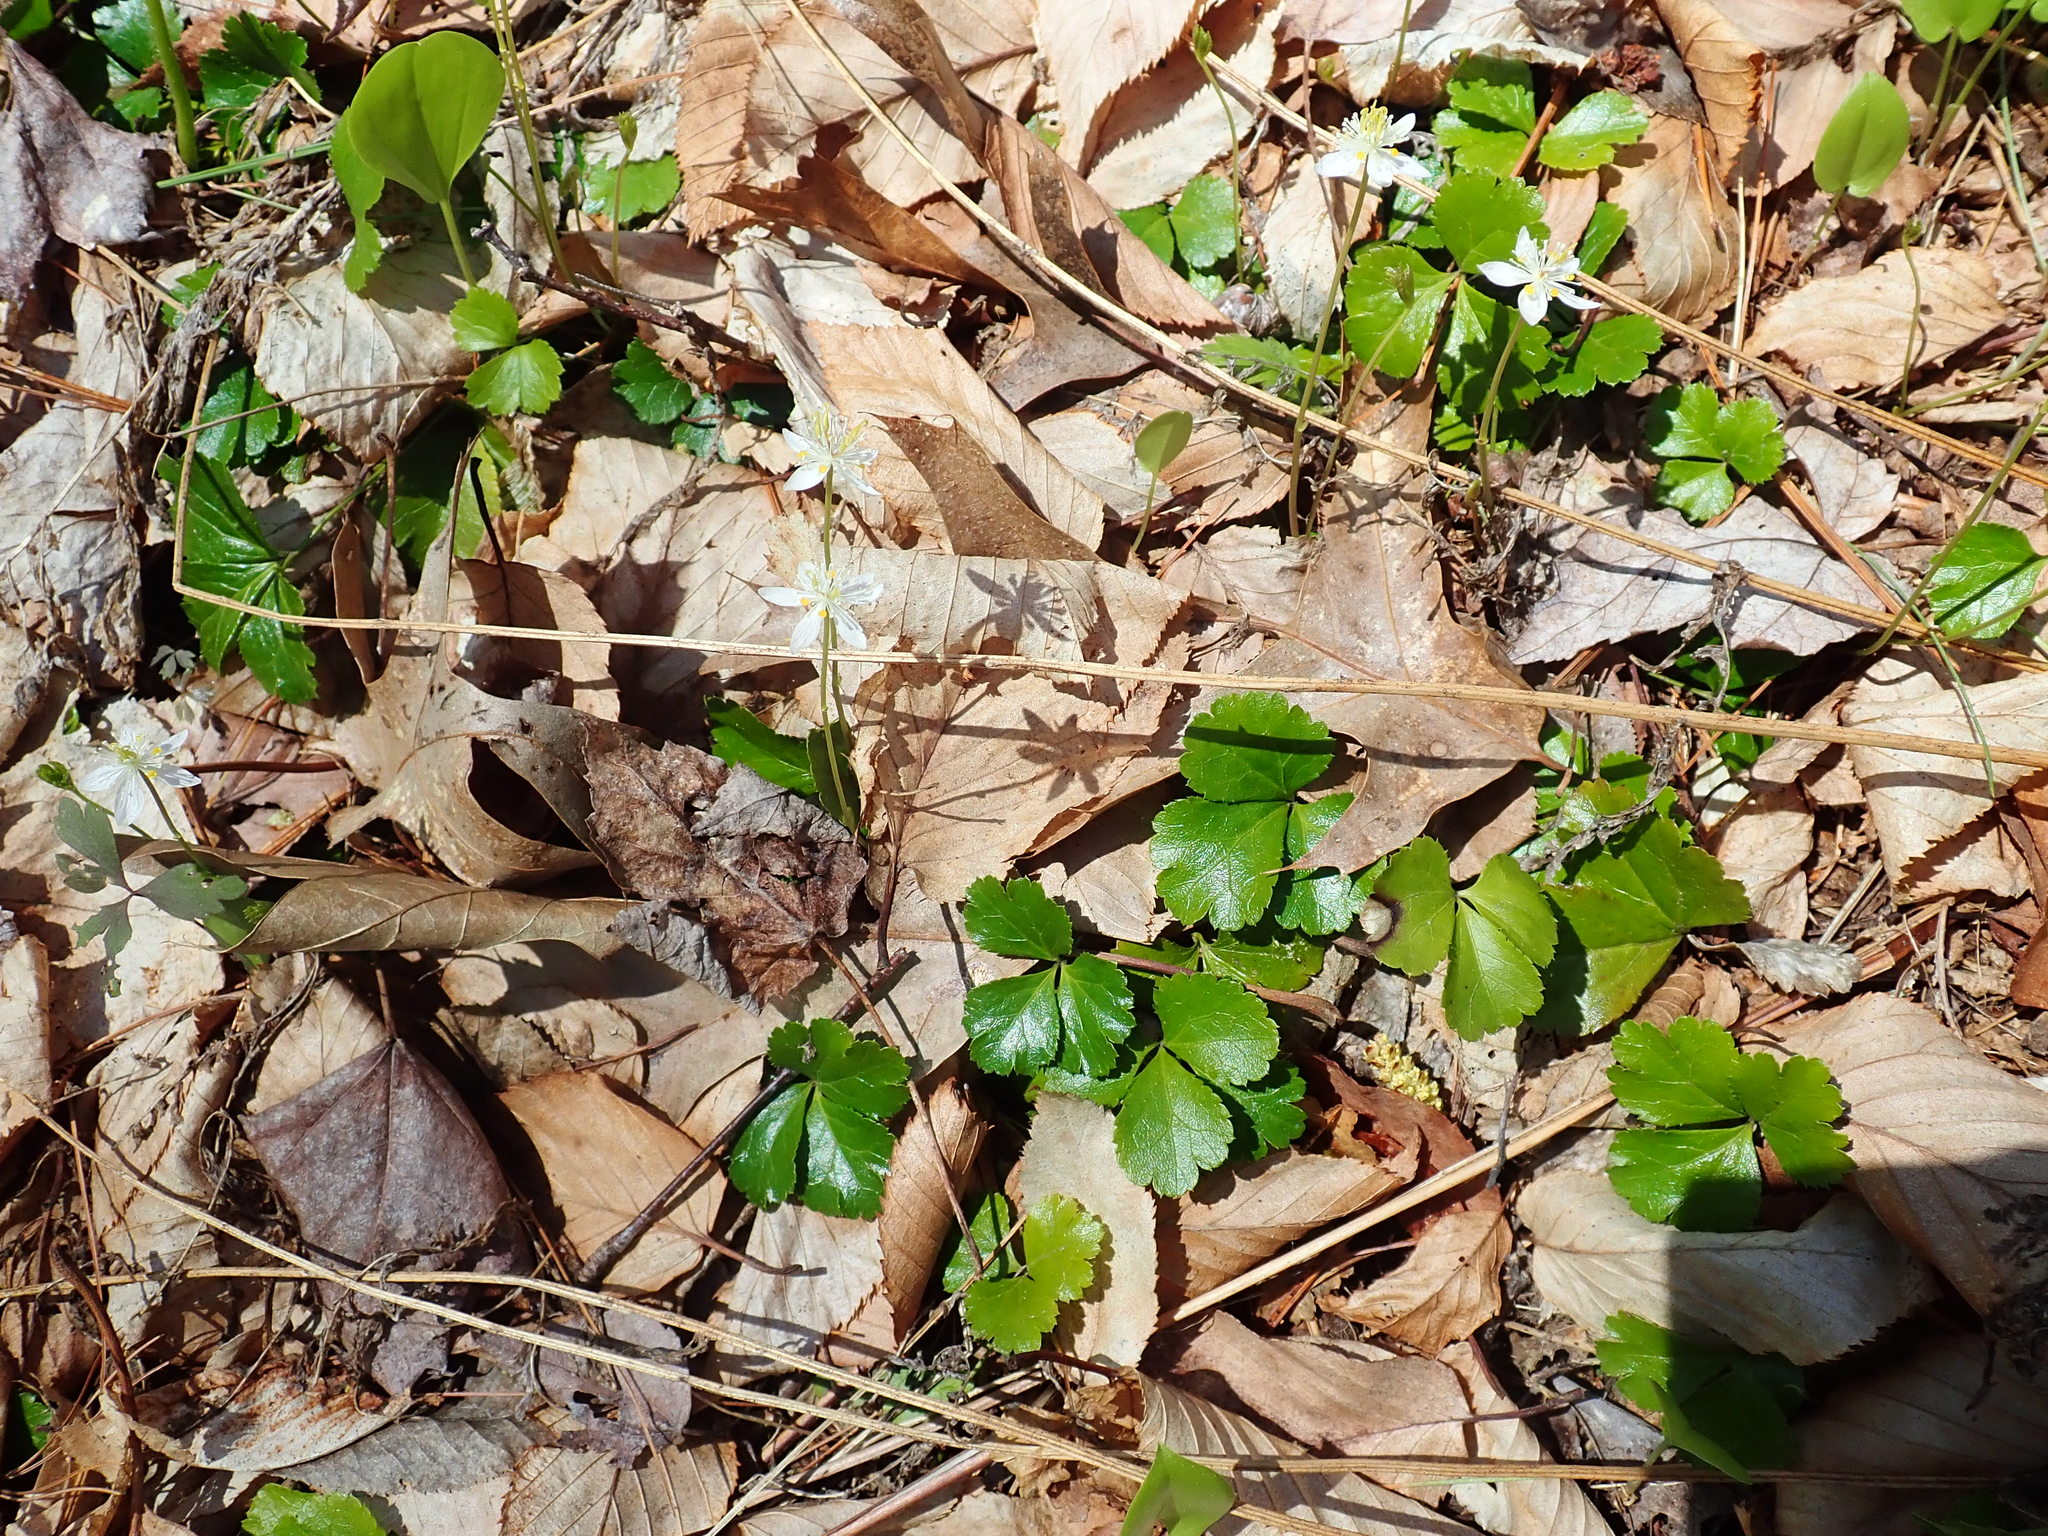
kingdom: Plantae
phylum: Tracheophyta
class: Magnoliopsida
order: Ranunculales
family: Ranunculaceae
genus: Coptis
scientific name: Coptis trifolia
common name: Canker-root
